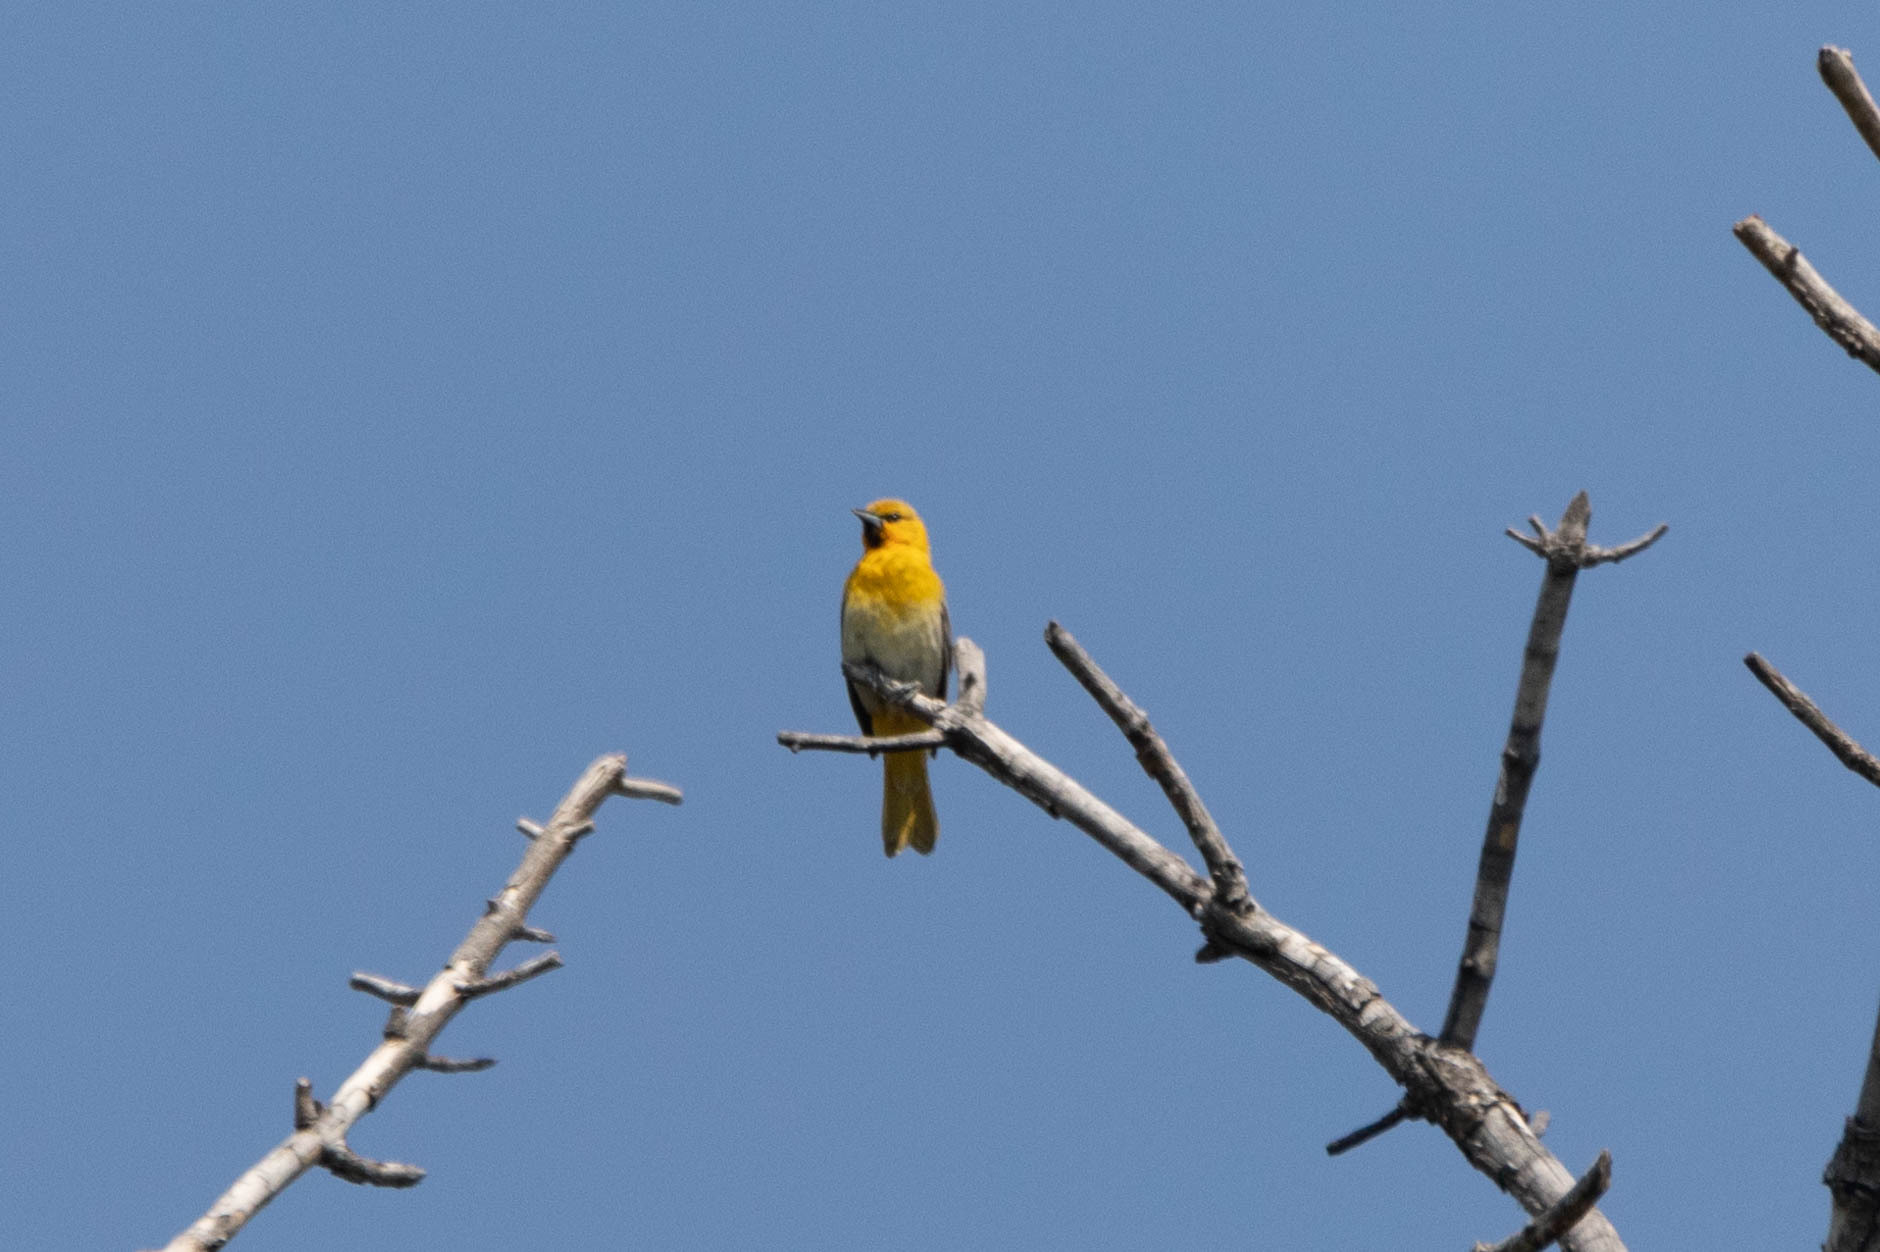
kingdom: Animalia
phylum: Chordata
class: Aves
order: Passeriformes
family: Icteridae
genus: Icterus
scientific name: Icterus bullockii
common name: Bullock's oriole
